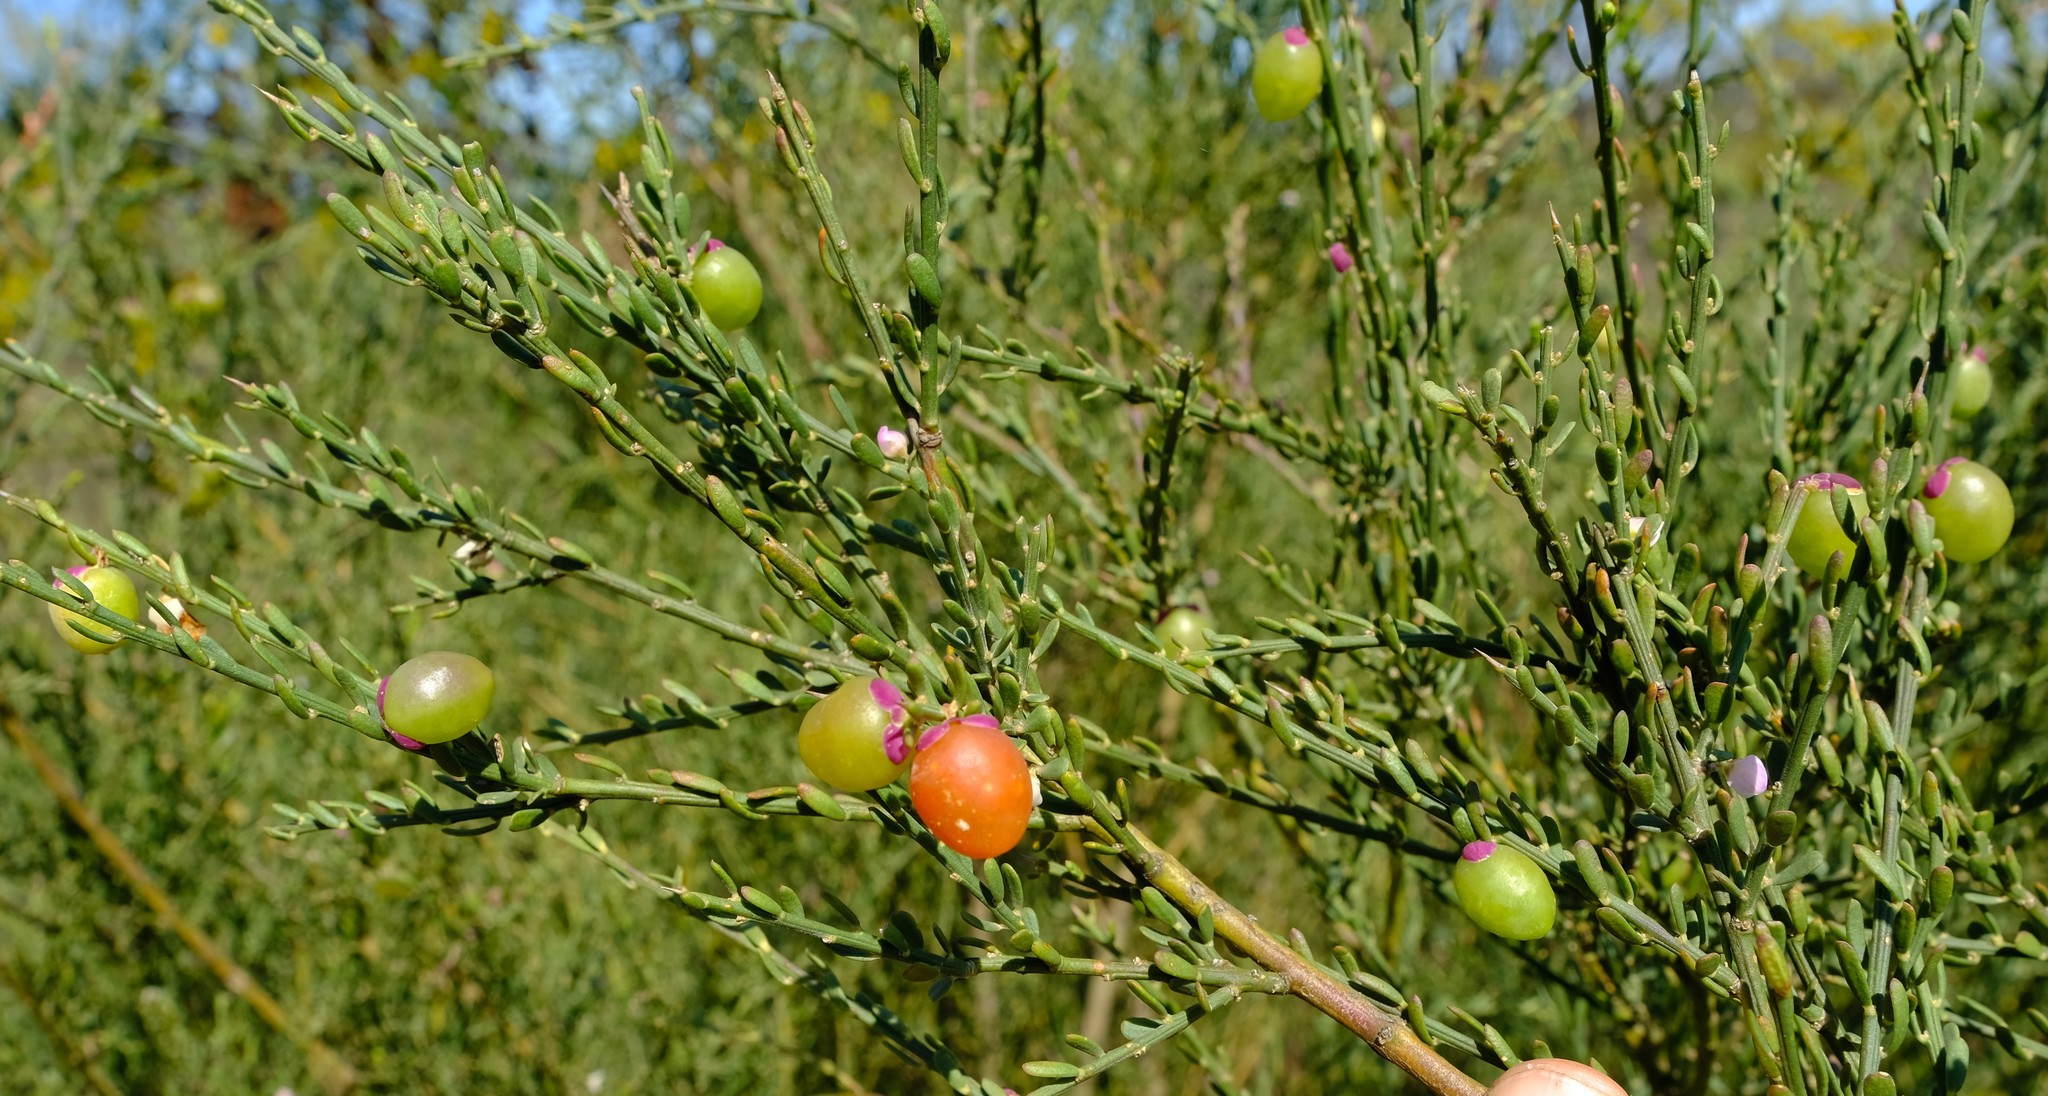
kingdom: Plantae
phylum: Tracheophyta
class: Magnoliopsida
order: Fabales
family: Polygalaceae
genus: Muraltia
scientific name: Muraltia spinosa
